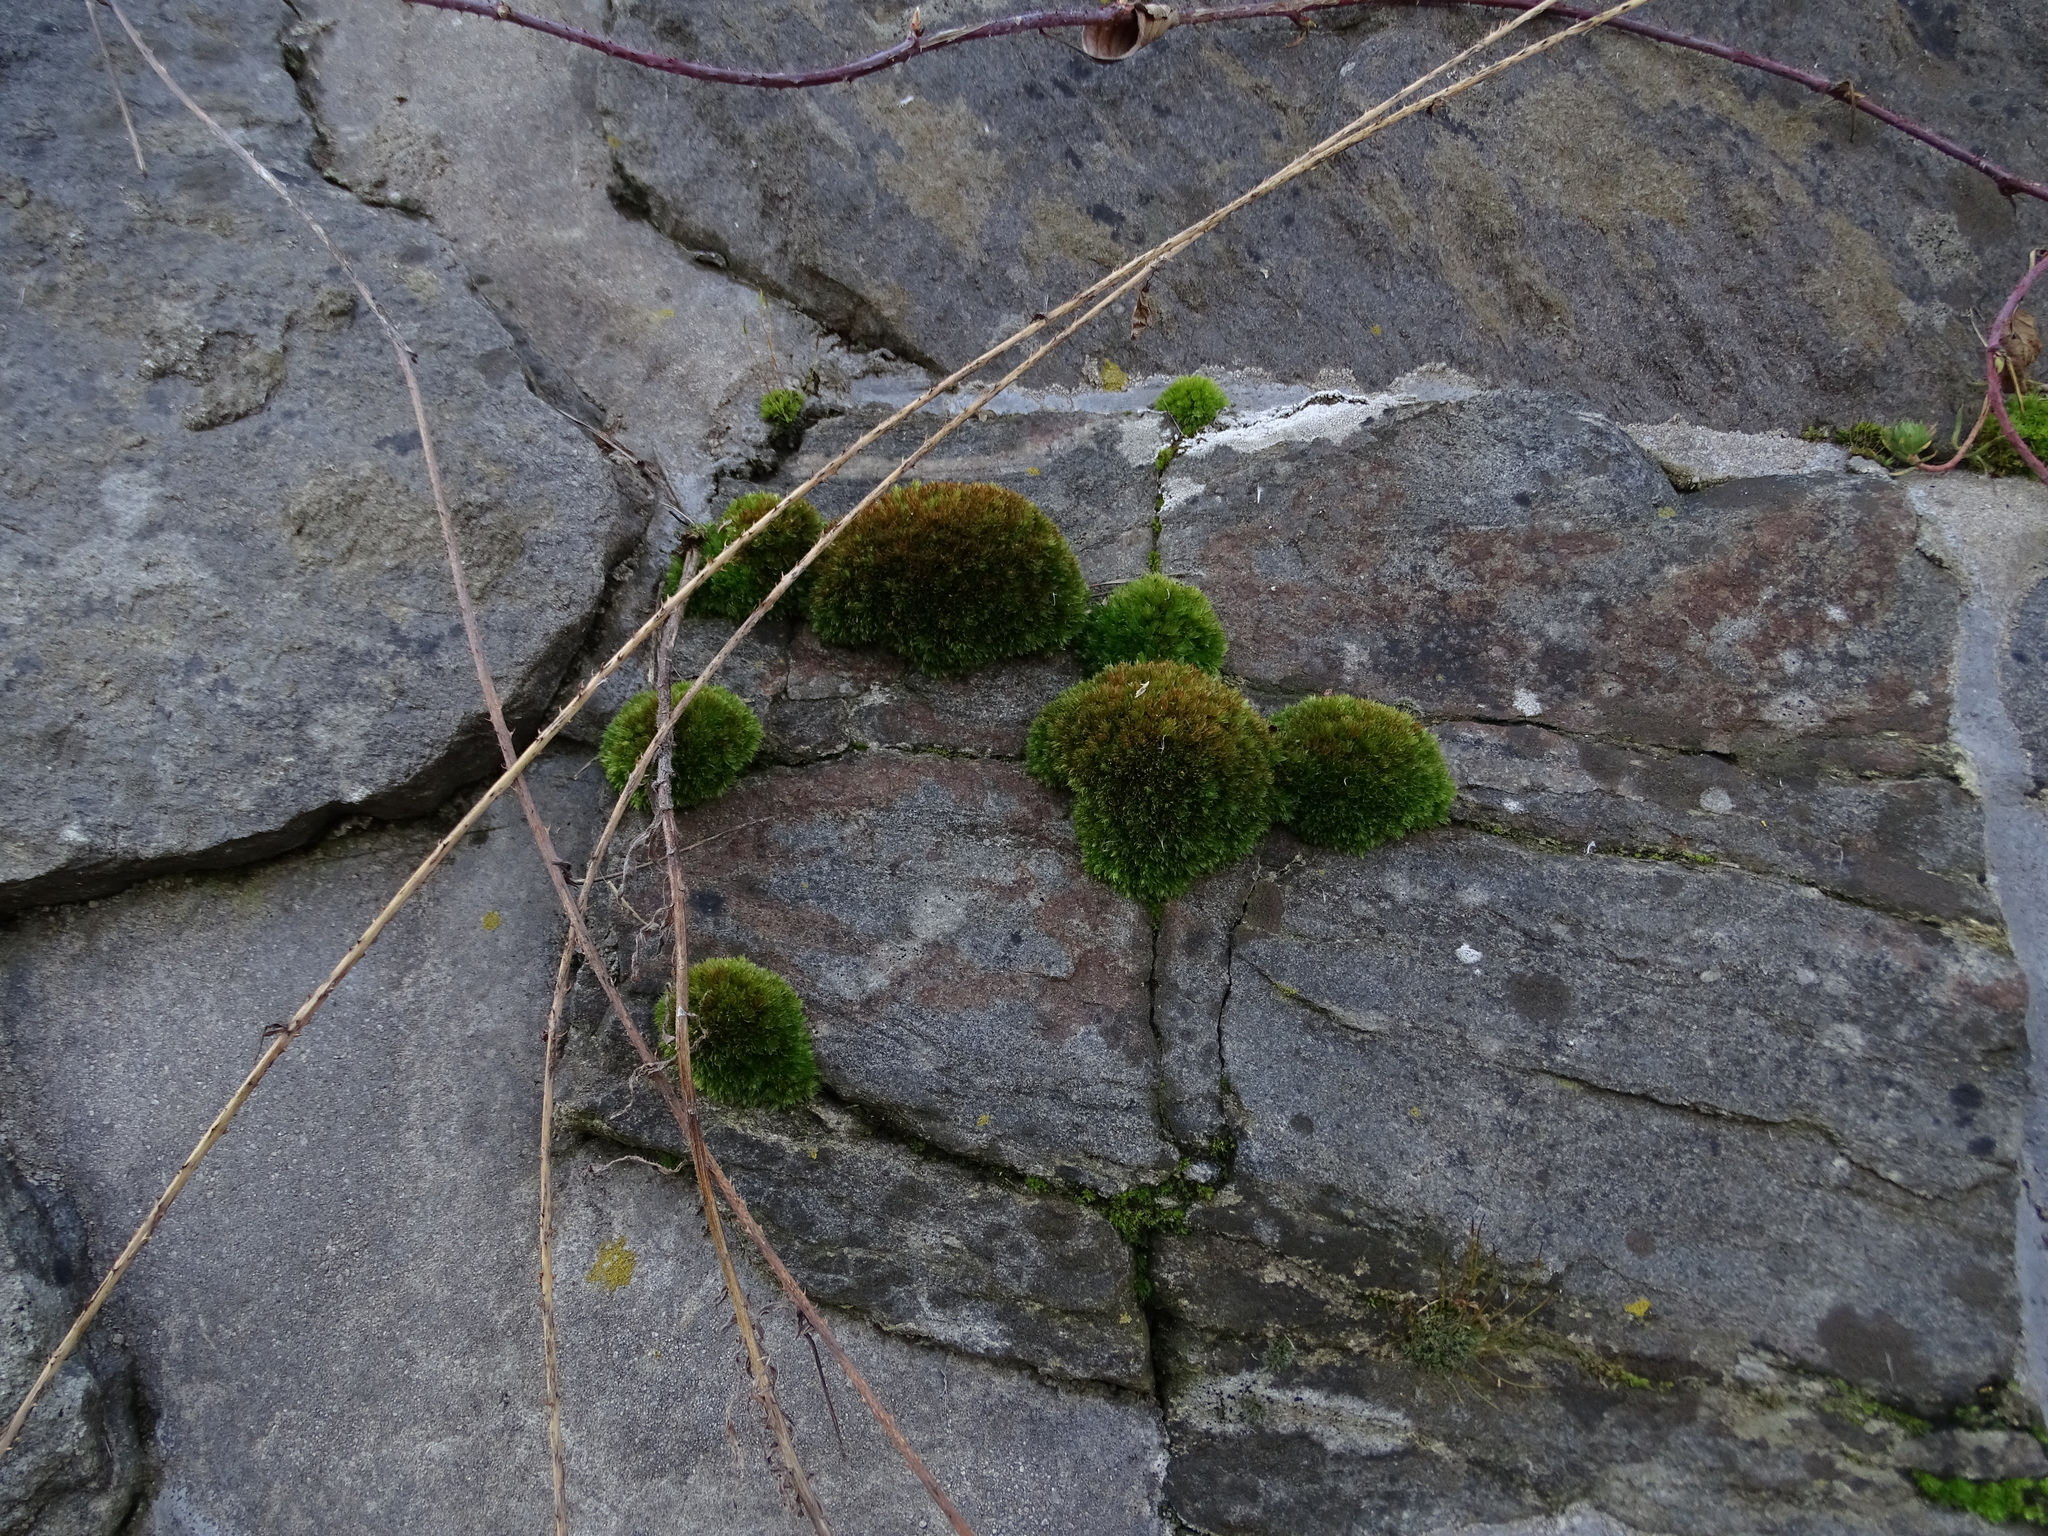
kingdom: Plantae
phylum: Bryophyta
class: Bryopsida
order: Bryales
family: Bryaceae
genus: Rosulabryum
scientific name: Rosulabryum capillare
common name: Capillary thread-moss
